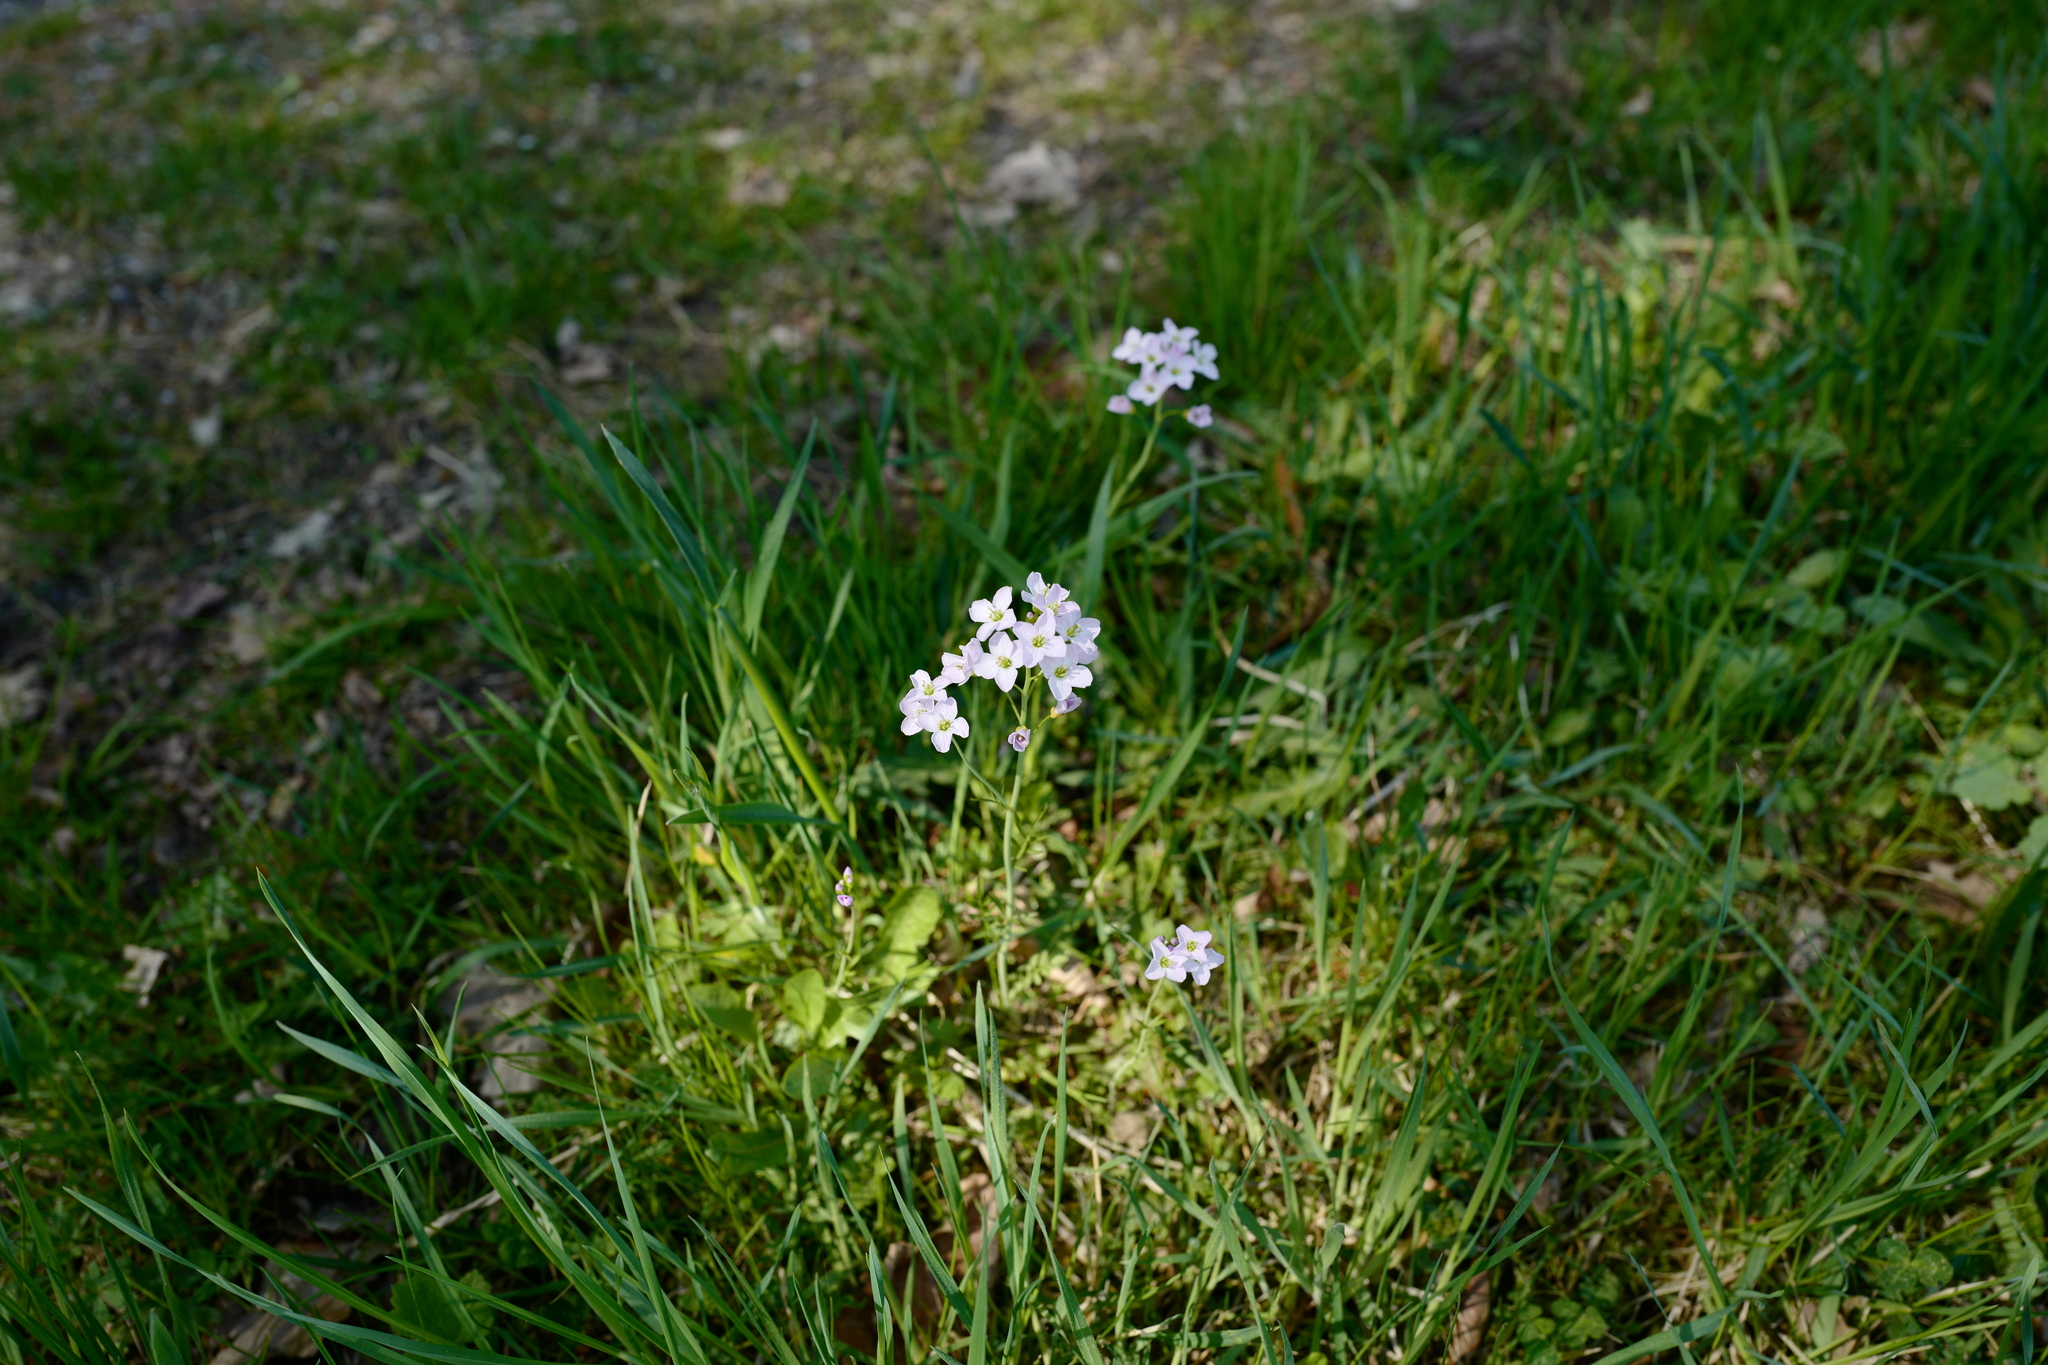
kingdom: Plantae
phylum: Tracheophyta
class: Magnoliopsida
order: Brassicales
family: Brassicaceae
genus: Cardamine
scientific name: Cardamine pratensis
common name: Cuckoo flower
